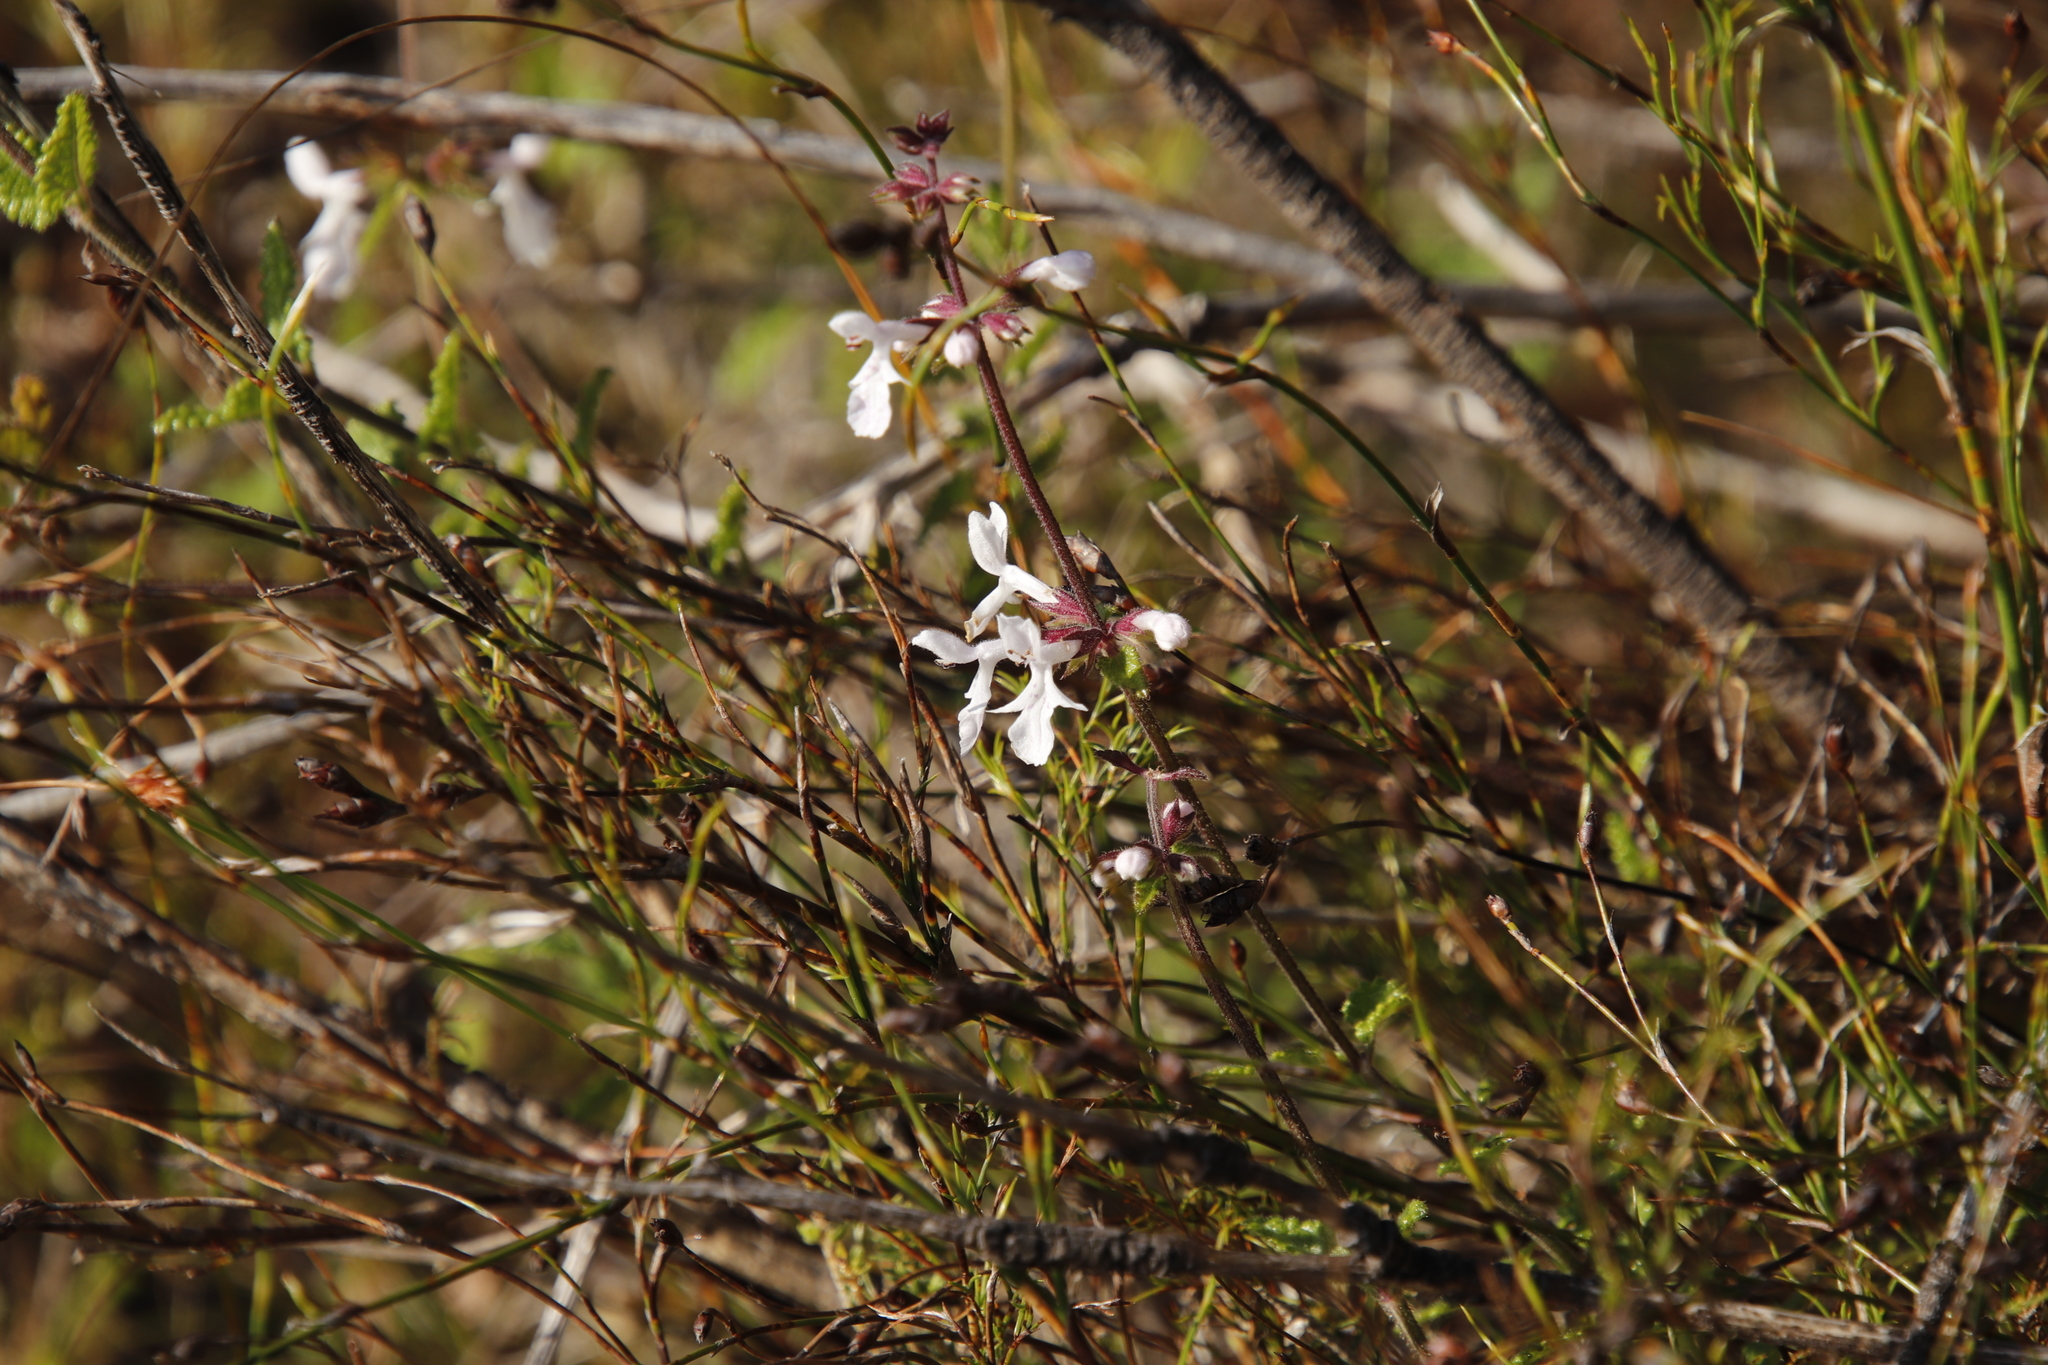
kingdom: Plantae
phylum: Tracheophyta
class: Magnoliopsida
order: Lamiales
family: Lamiaceae
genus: Stachys
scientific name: Stachys aethiopica
